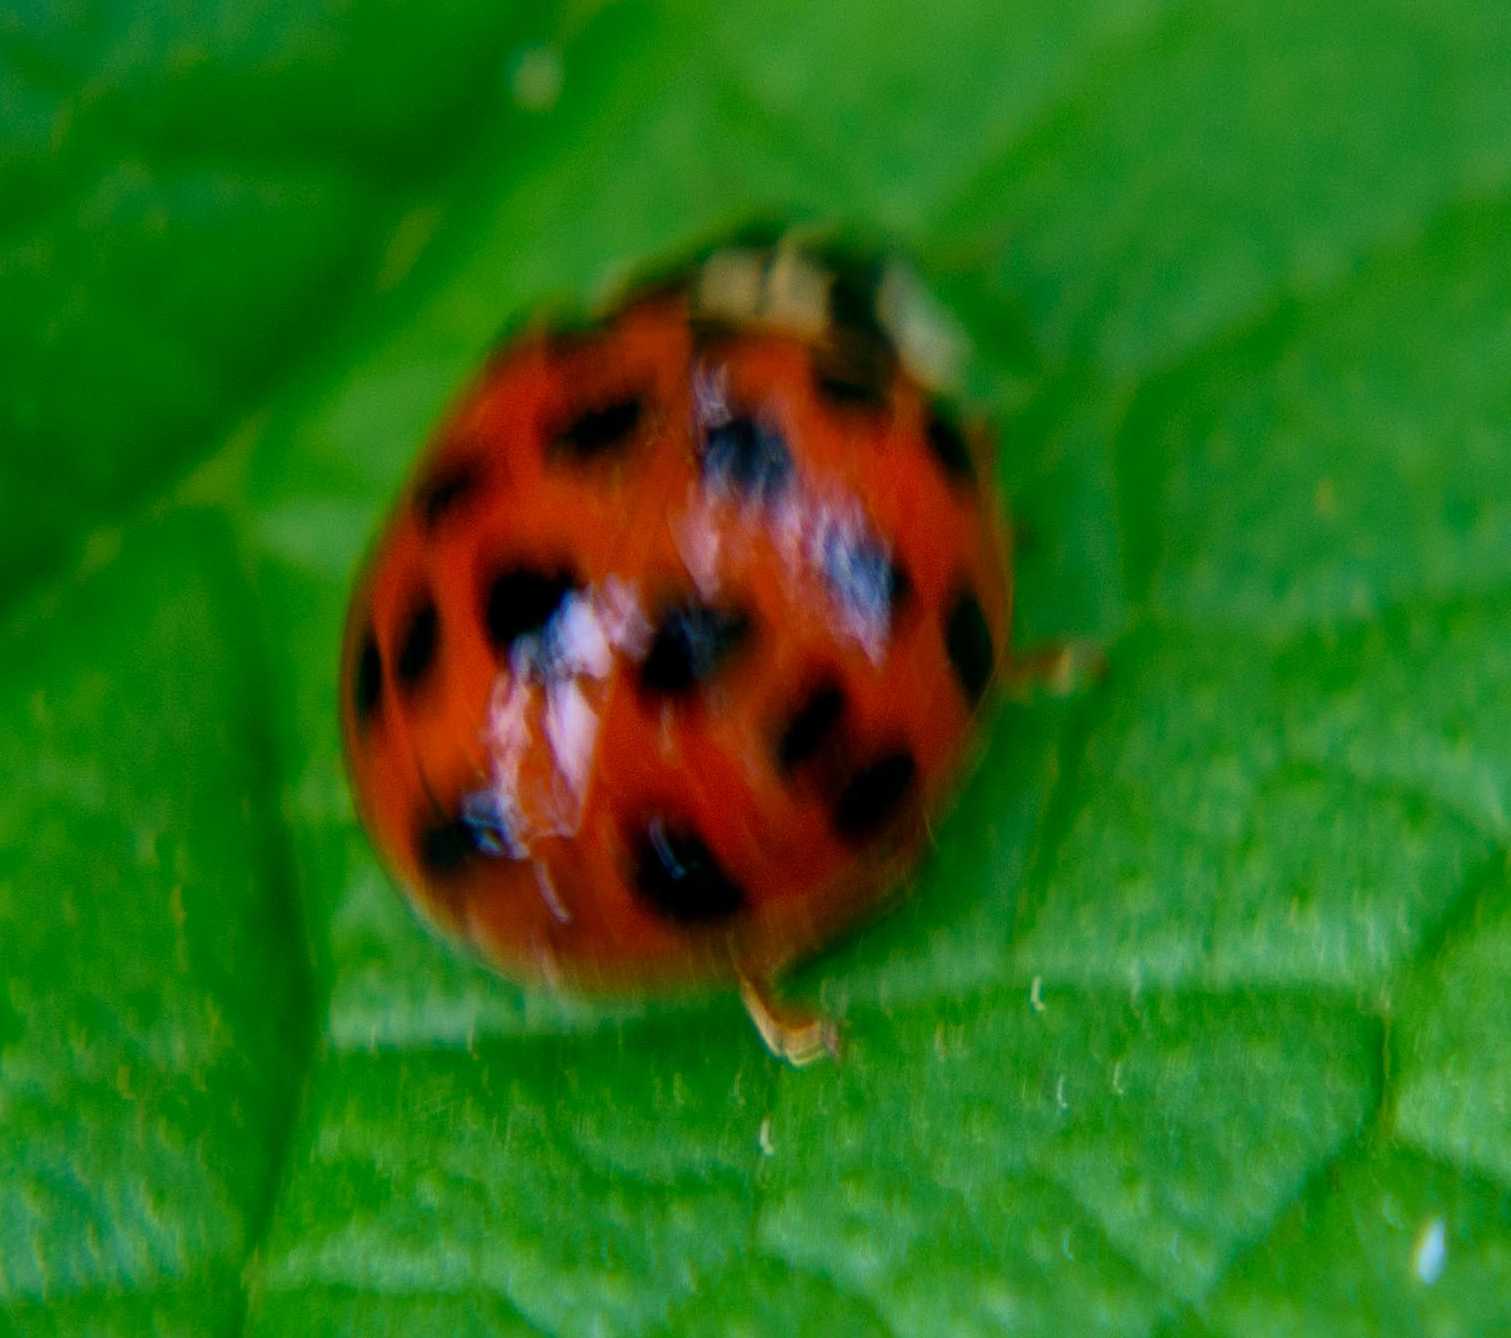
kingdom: Animalia
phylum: Arthropoda
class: Insecta
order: Coleoptera
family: Coccinellidae
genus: Harmonia
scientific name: Harmonia axyridis
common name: Harlequin ladybird
